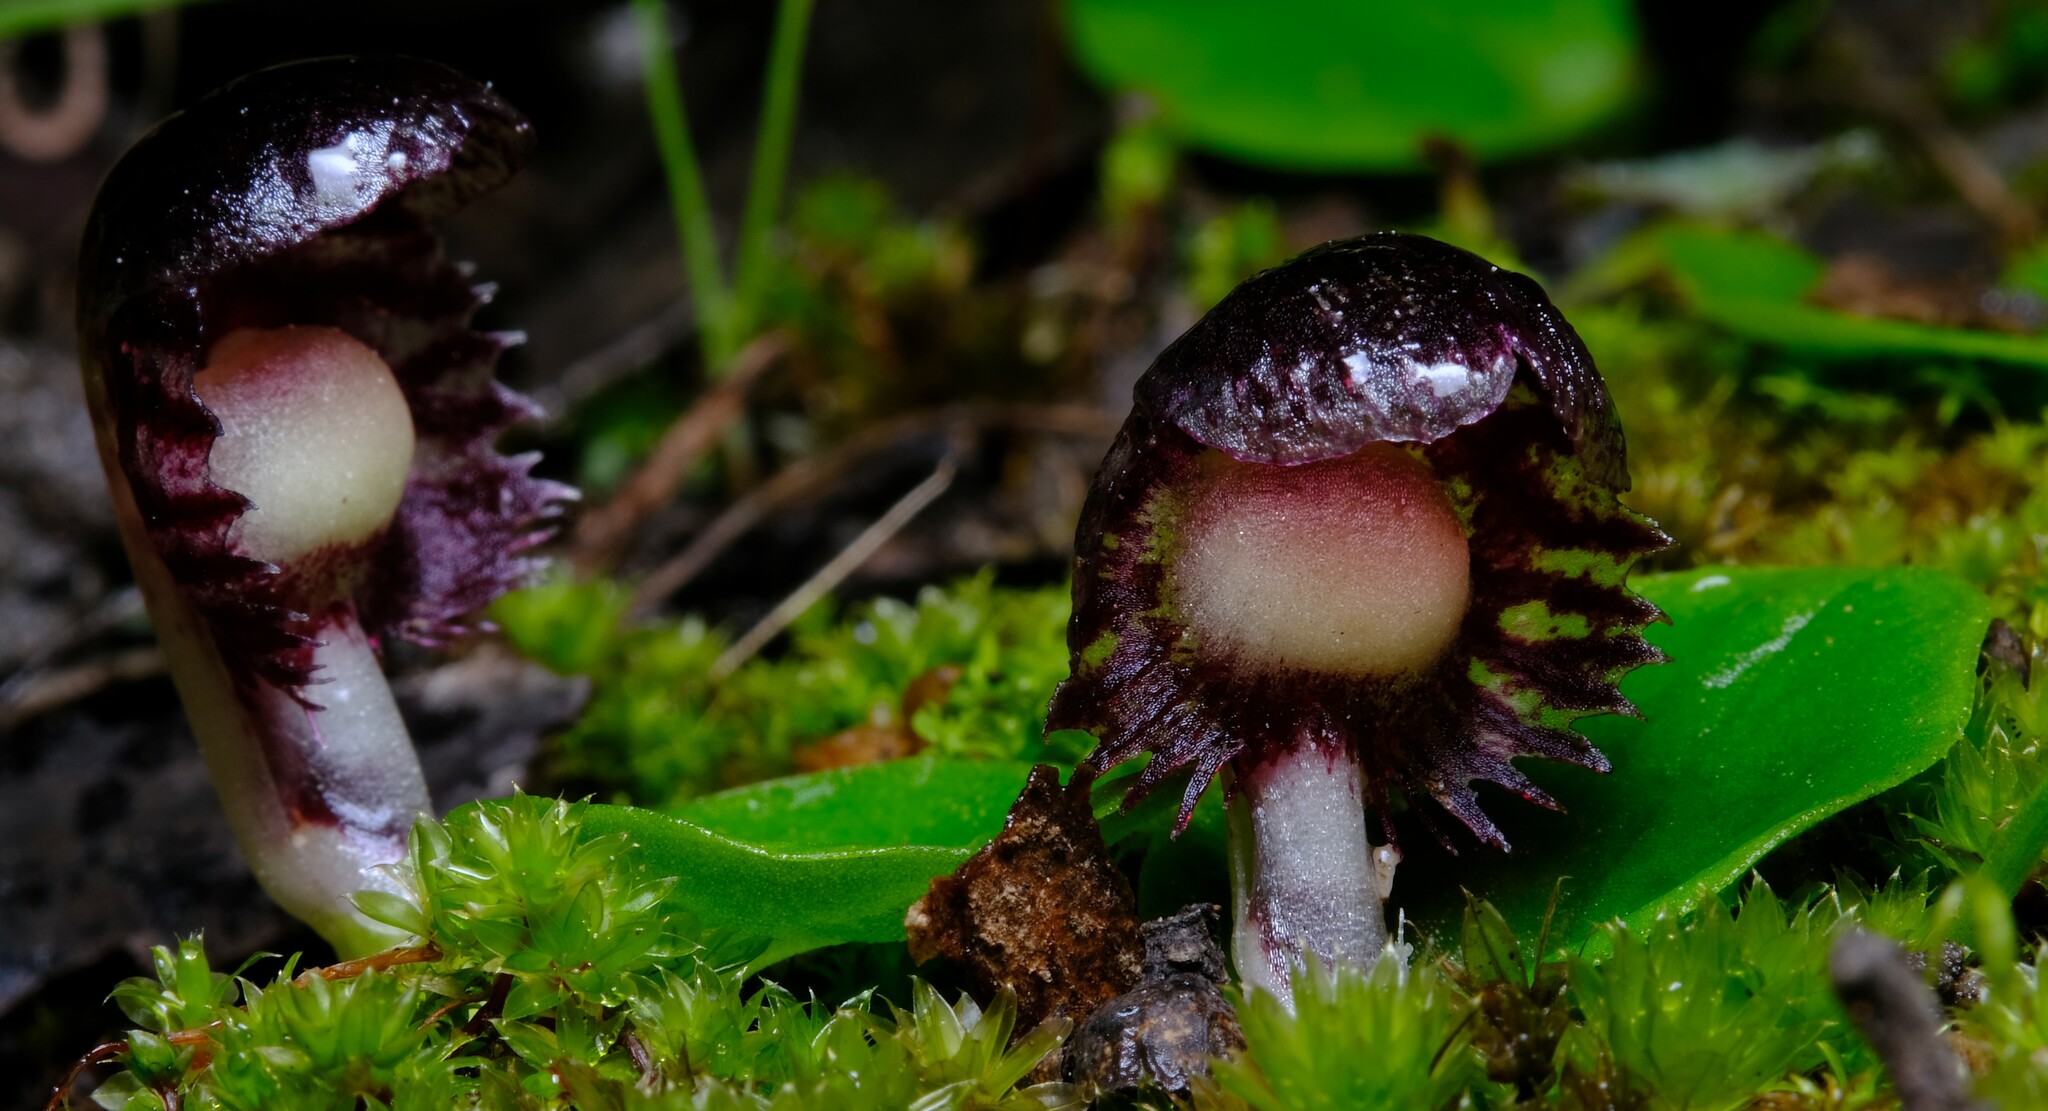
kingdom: Plantae
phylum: Tracheophyta
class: Liliopsida
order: Asparagales
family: Orchidaceae
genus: Corybas
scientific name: Corybas diemenicus
